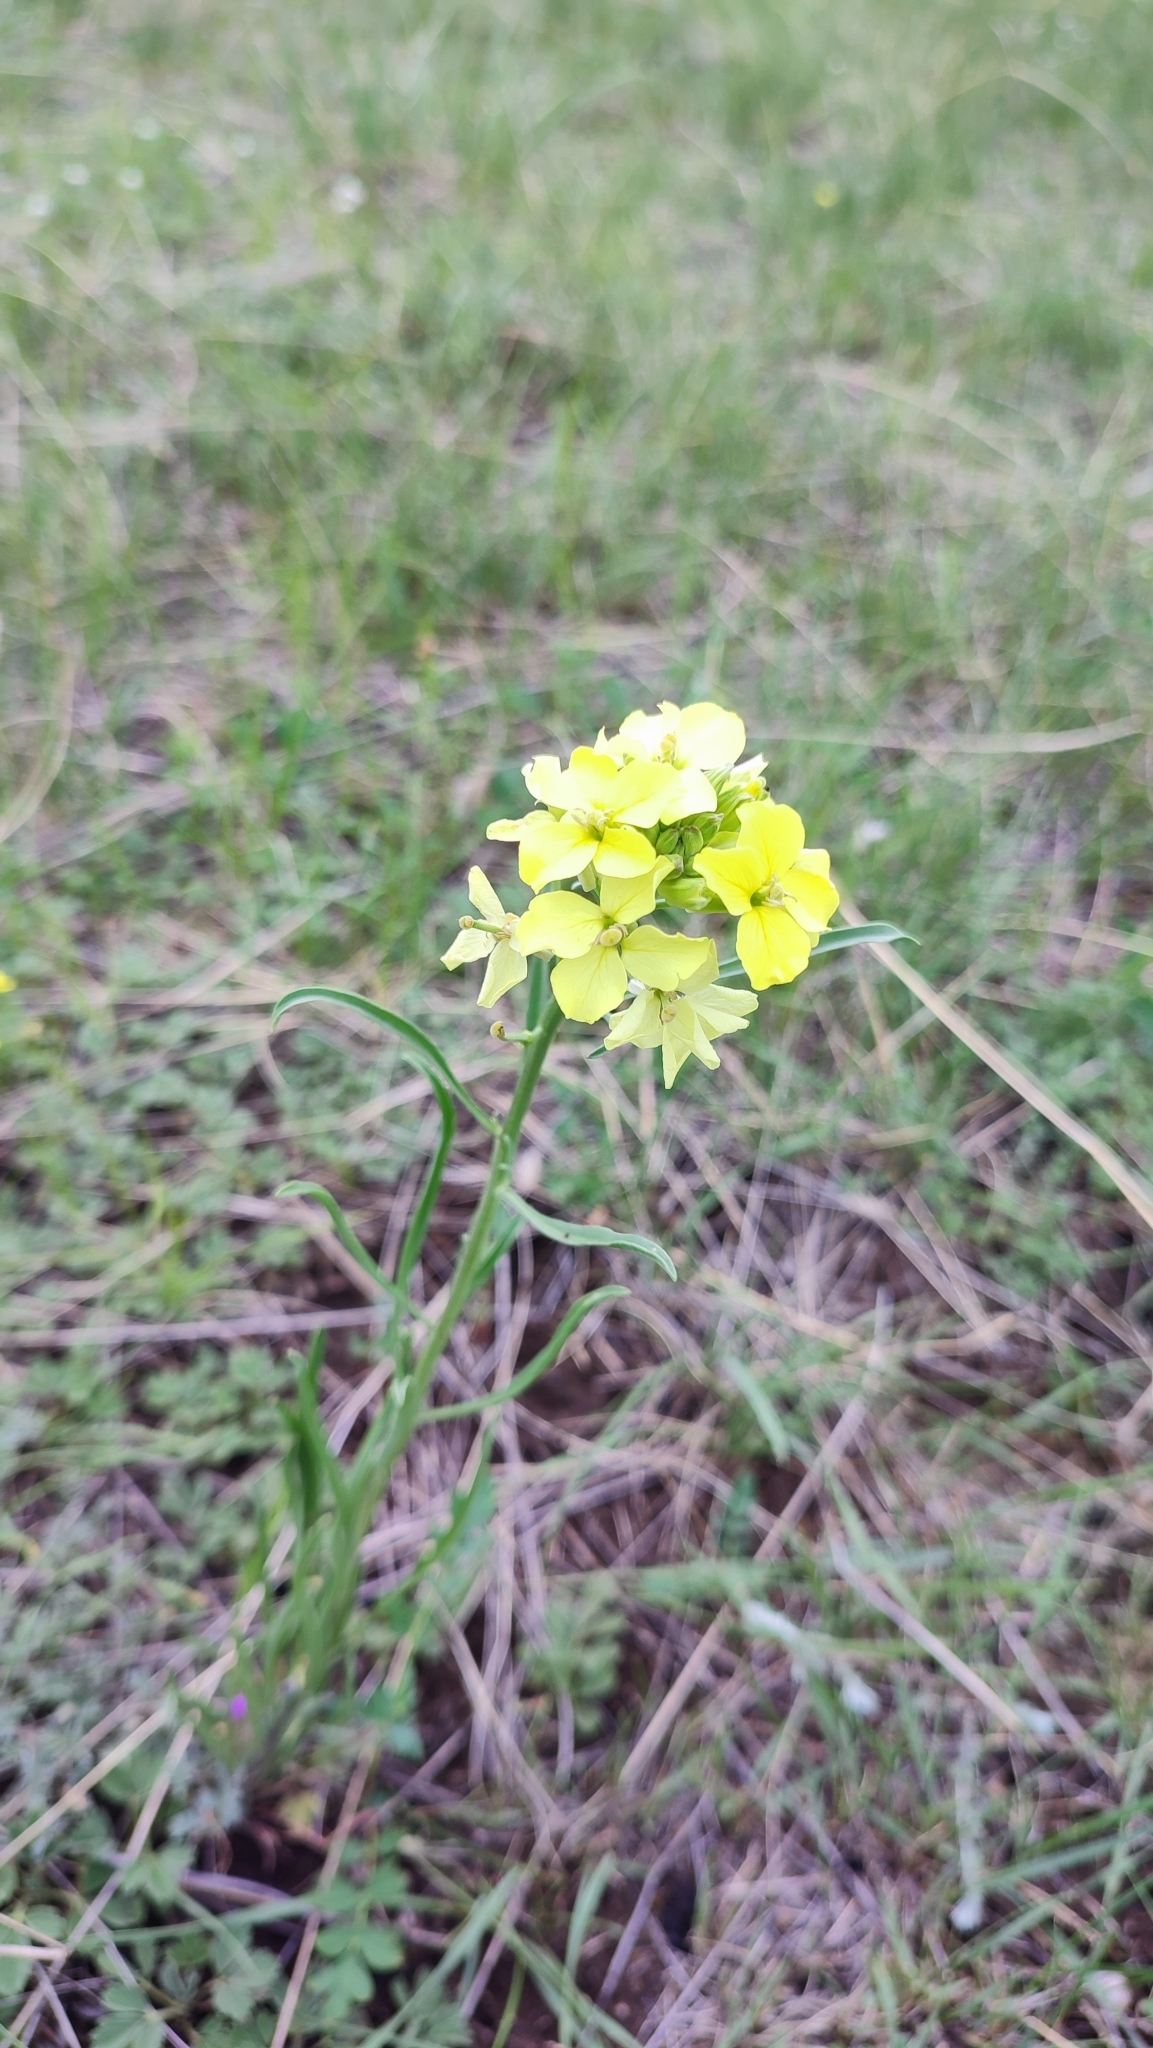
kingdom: Plantae
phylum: Tracheophyta
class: Magnoliopsida
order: Brassicales
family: Brassicaceae
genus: Erysimum
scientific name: Erysimum flavum
